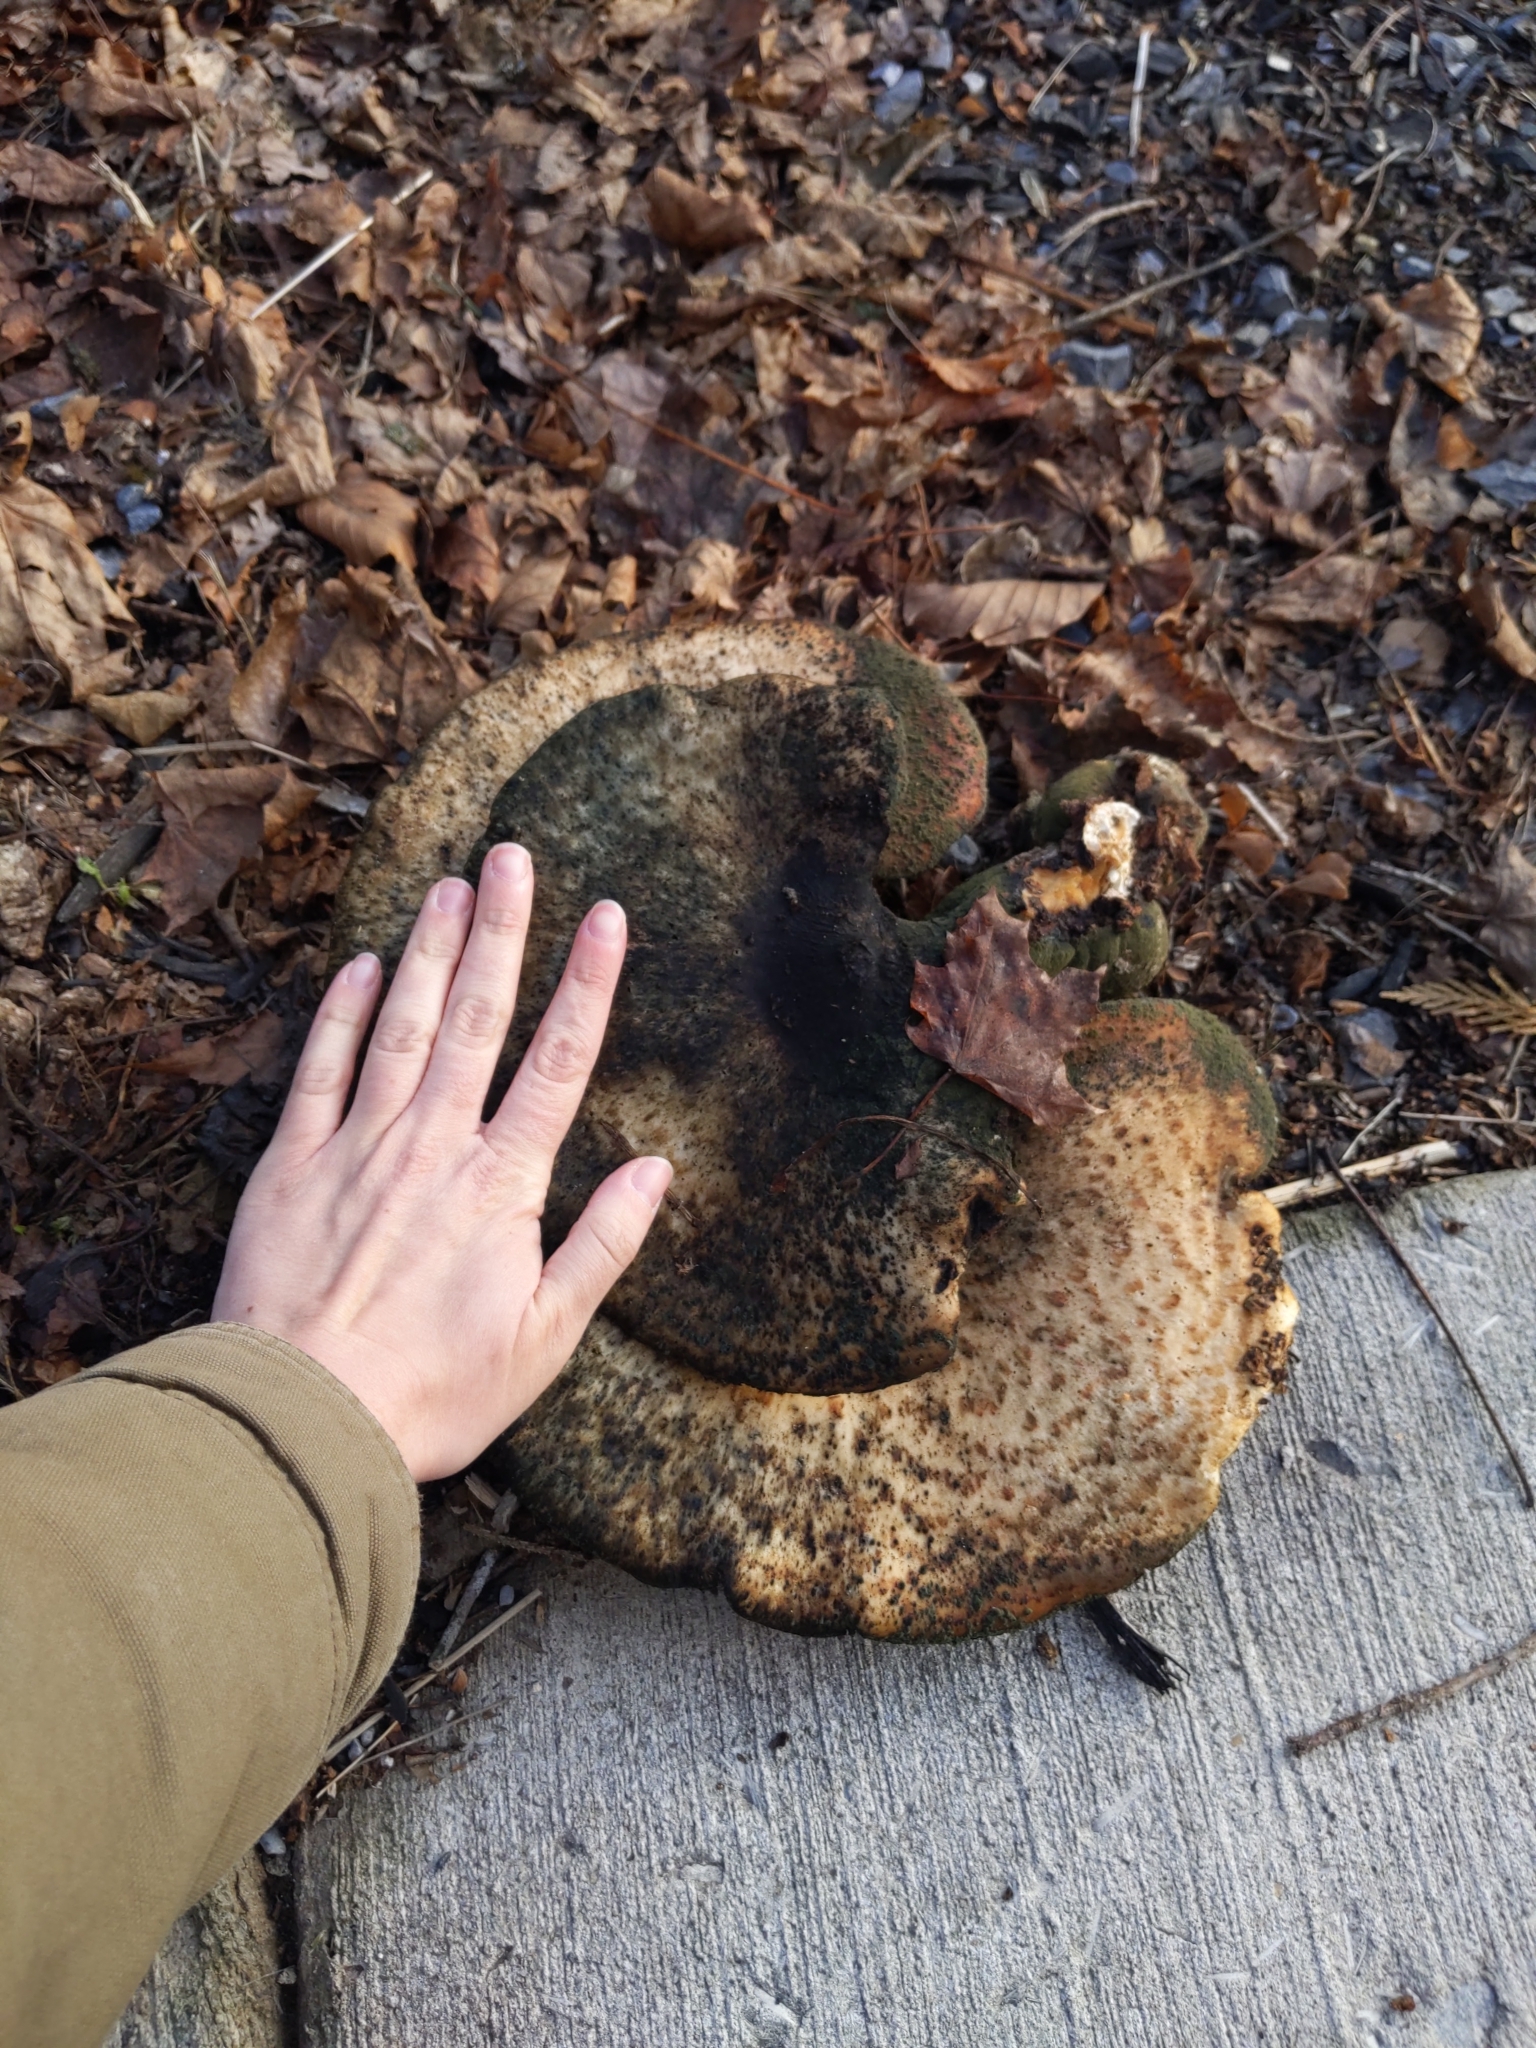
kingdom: Fungi
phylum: Basidiomycota
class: Agaricomycetes
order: Polyporales
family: Polyporaceae
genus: Cerioporus
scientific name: Cerioporus squamosus
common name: Dryad's saddle
